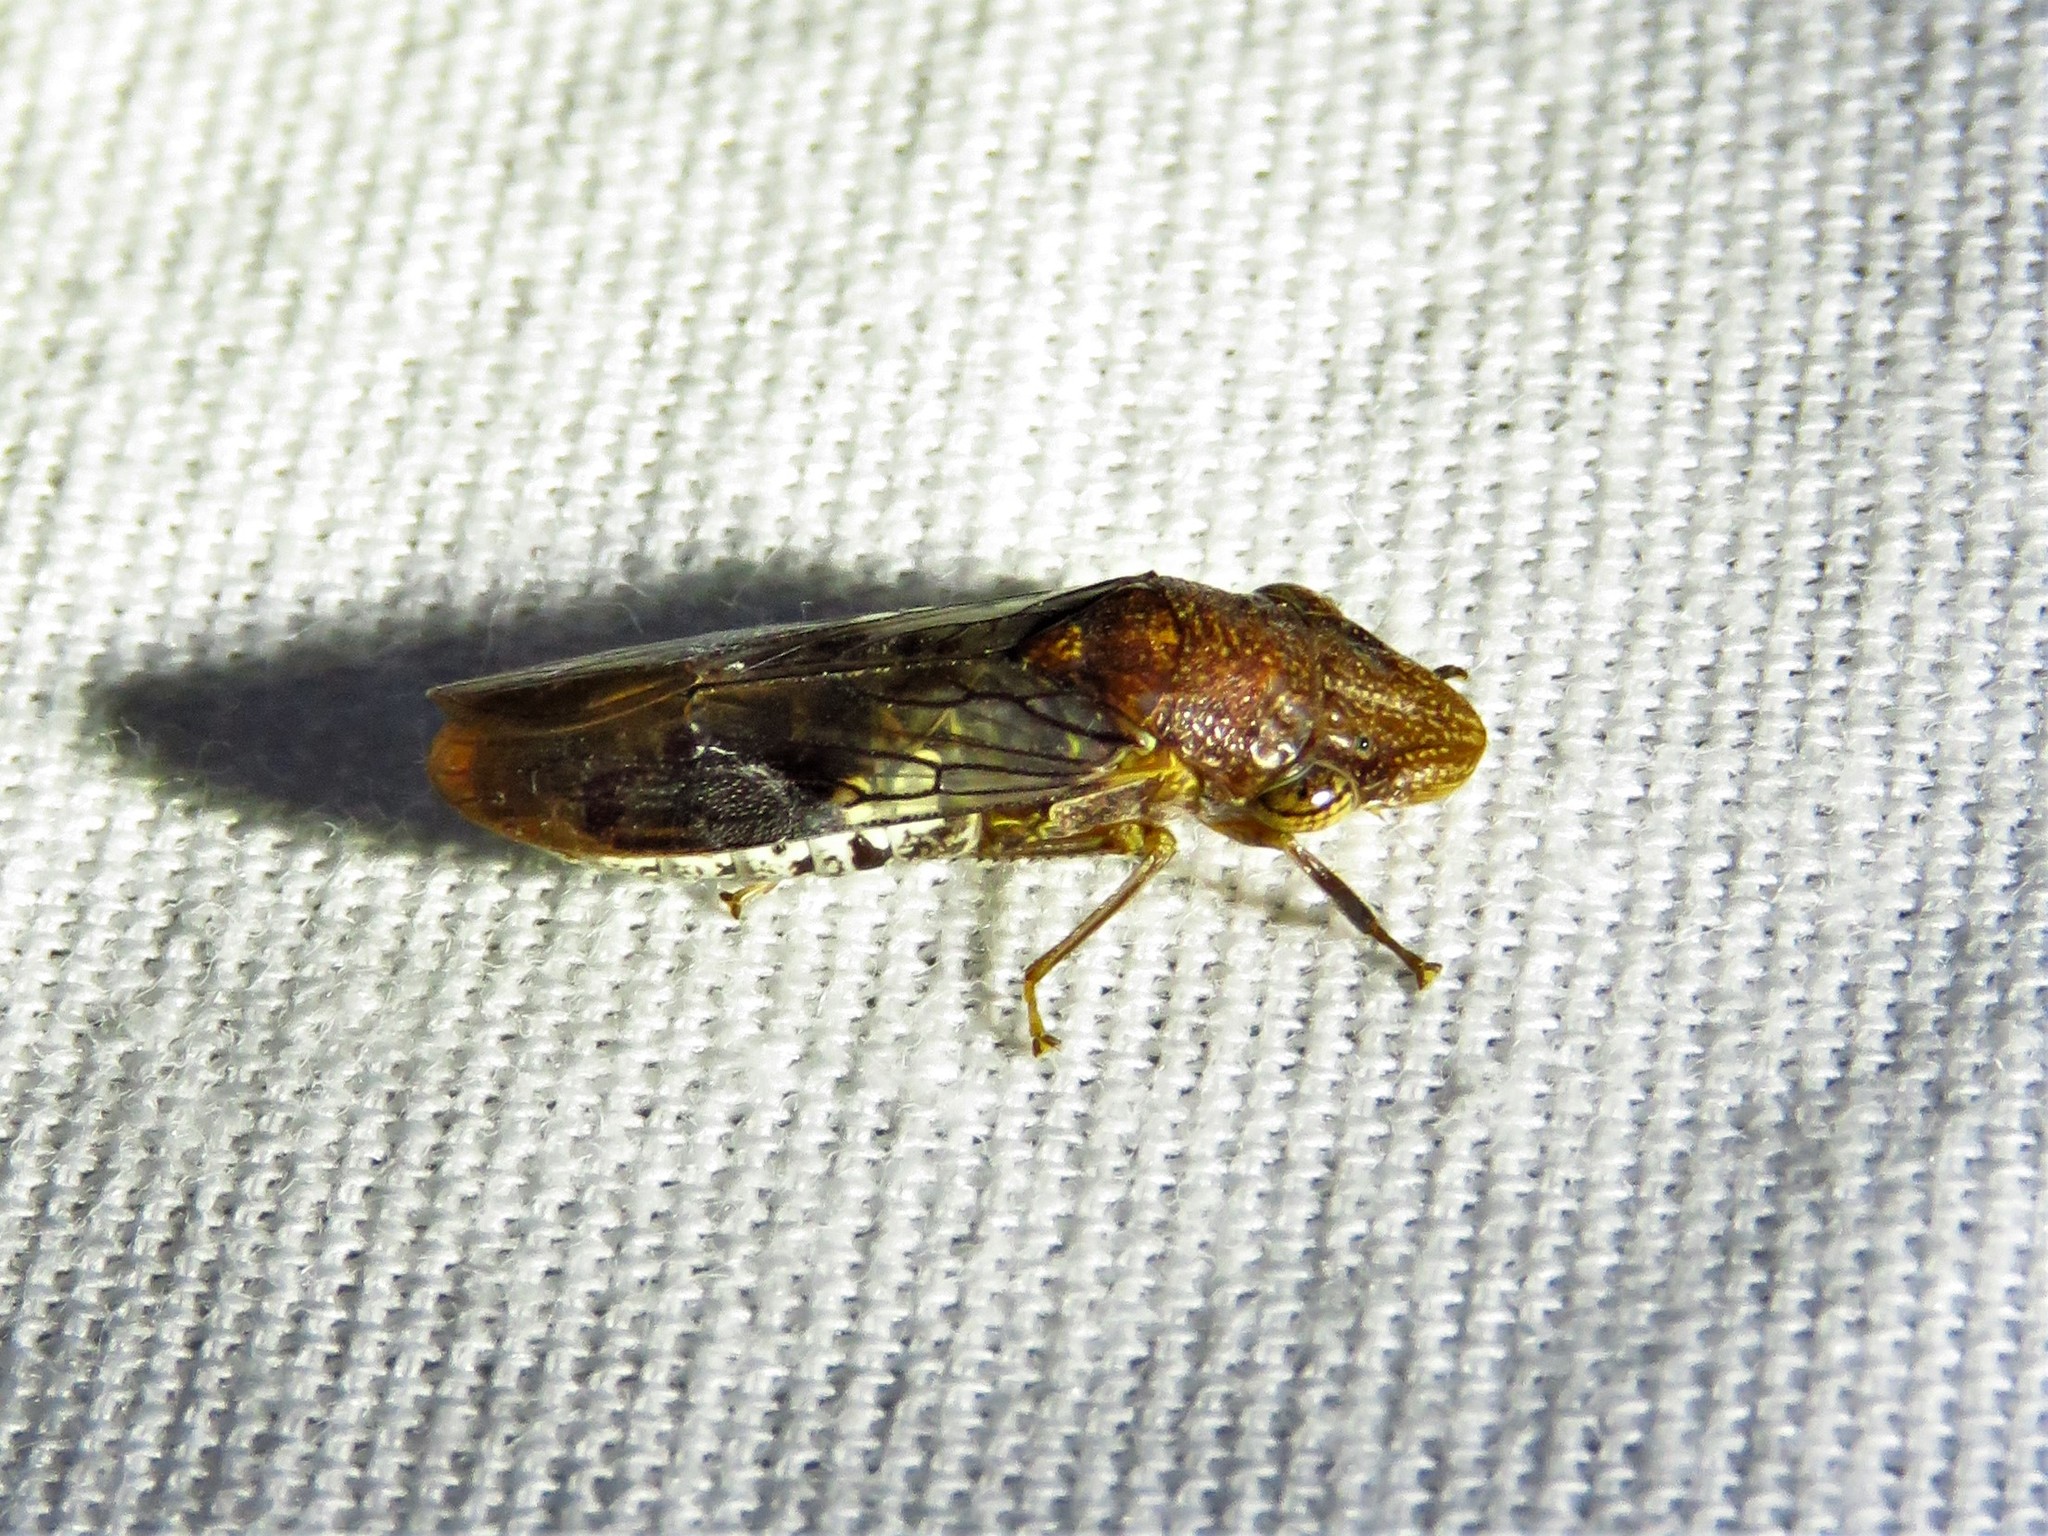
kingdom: Animalia
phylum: Arthropoda
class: Insecta
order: Hemiptera
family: Cicadellidae
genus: Homalodisca
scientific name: Homalodisca vitripennis
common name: Glassy-winged sharpshooter
